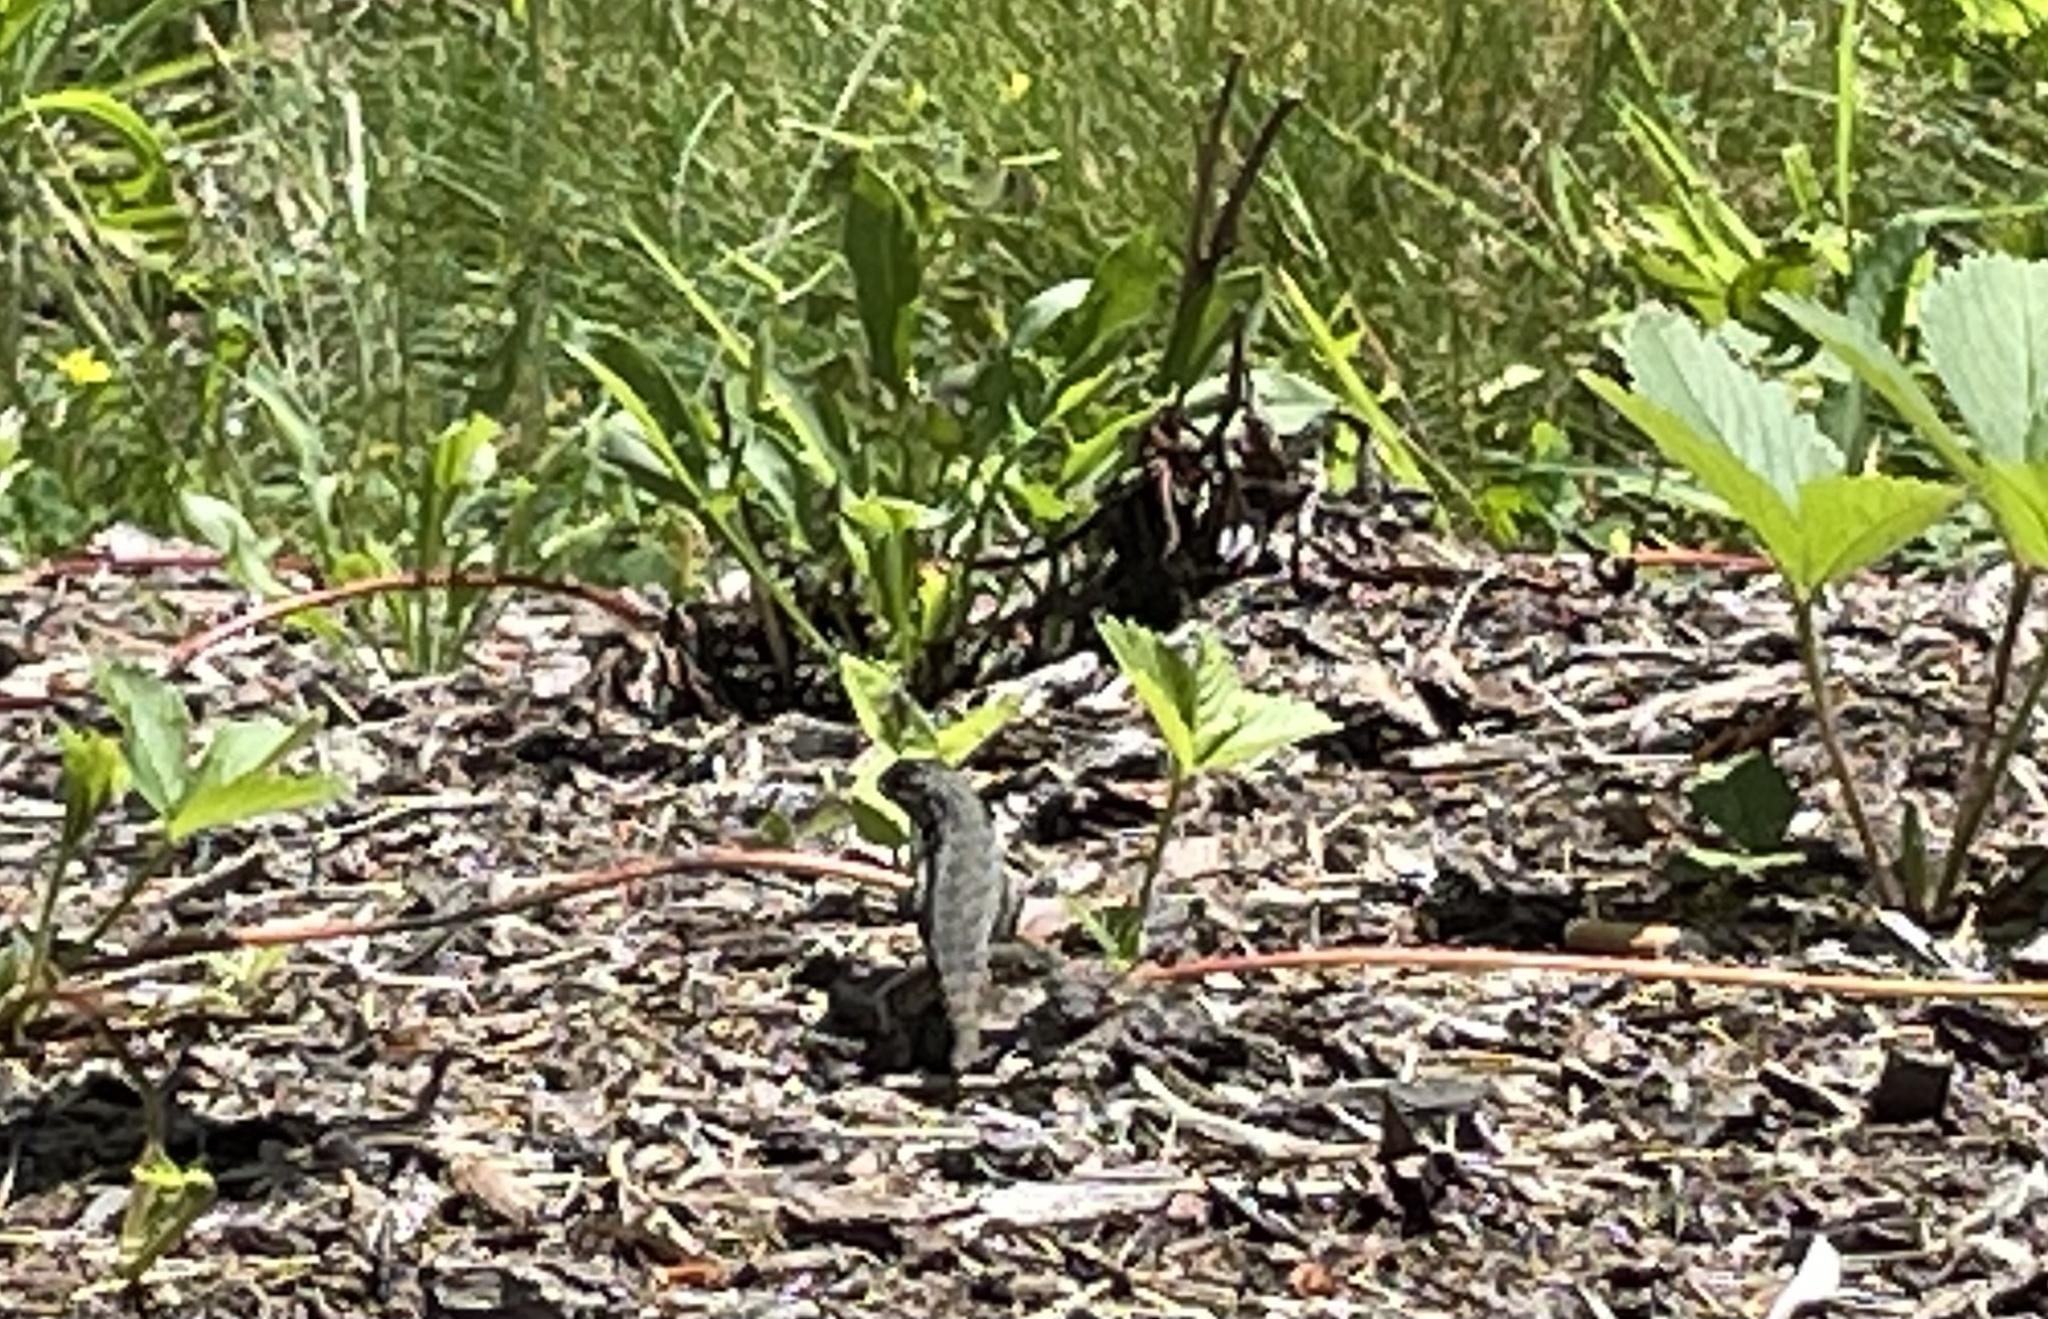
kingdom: Animalia
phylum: Chordata
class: Squamata
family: Phrynosomatidae
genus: Sceloporus
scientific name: Sceloporus undulatus
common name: Eastern fence lizard
